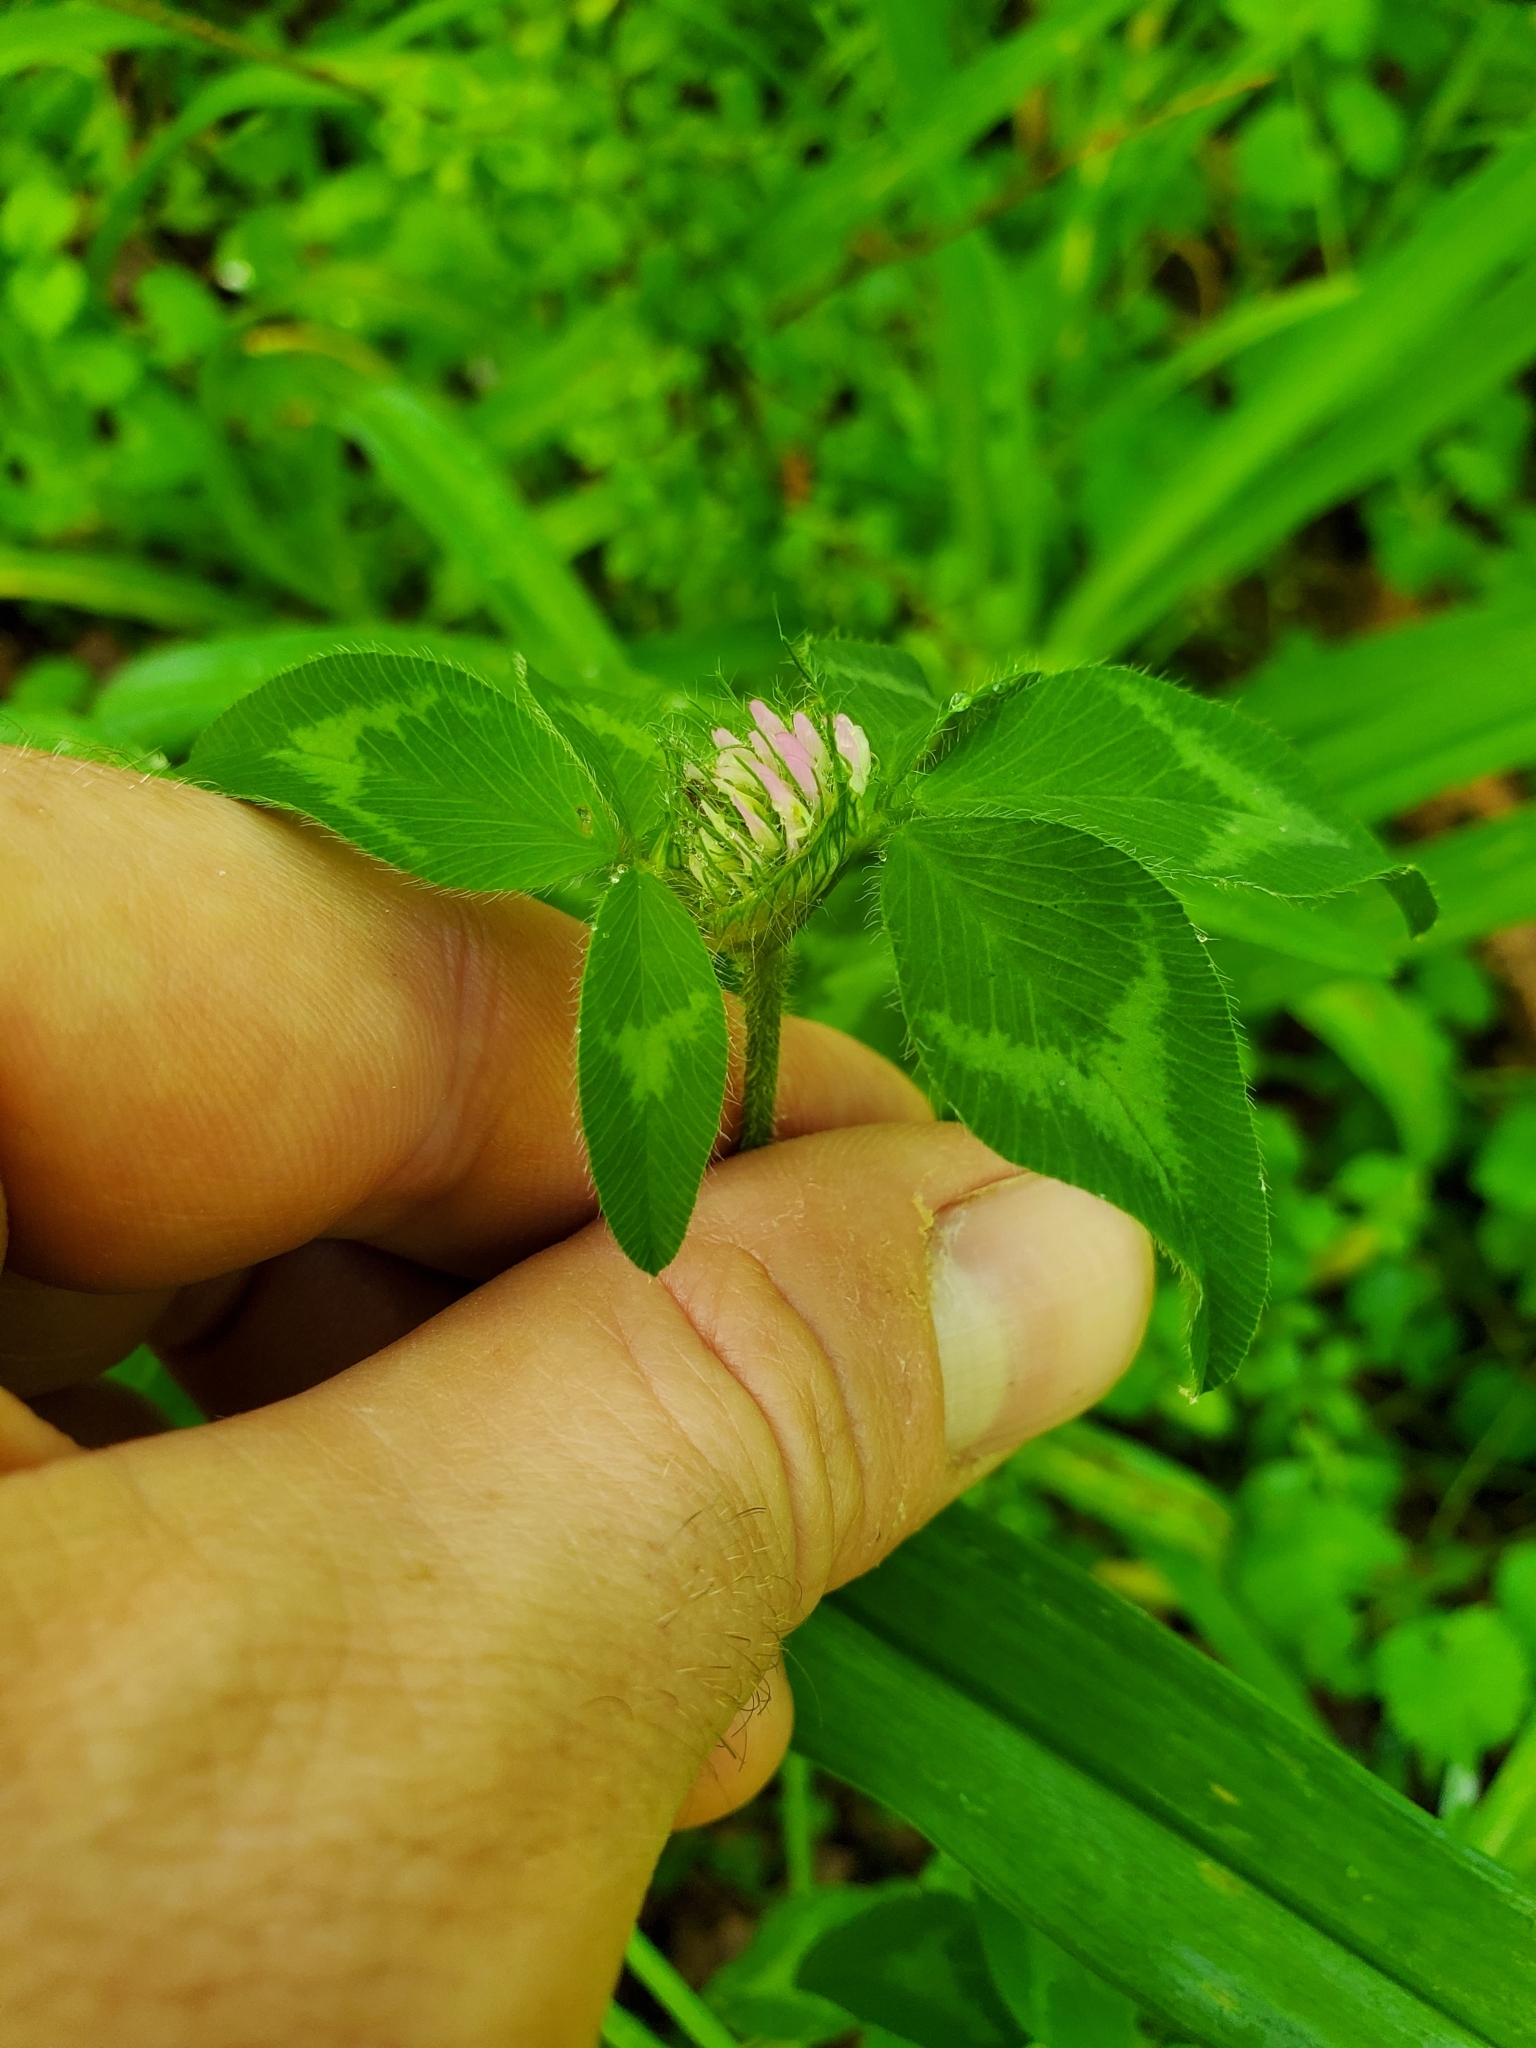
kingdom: Plantae
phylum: Tracheophyta
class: Magnoliopsida
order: Fabales
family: Fabaceae
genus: Trifolium
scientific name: Trifolium pratense
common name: Red clover
